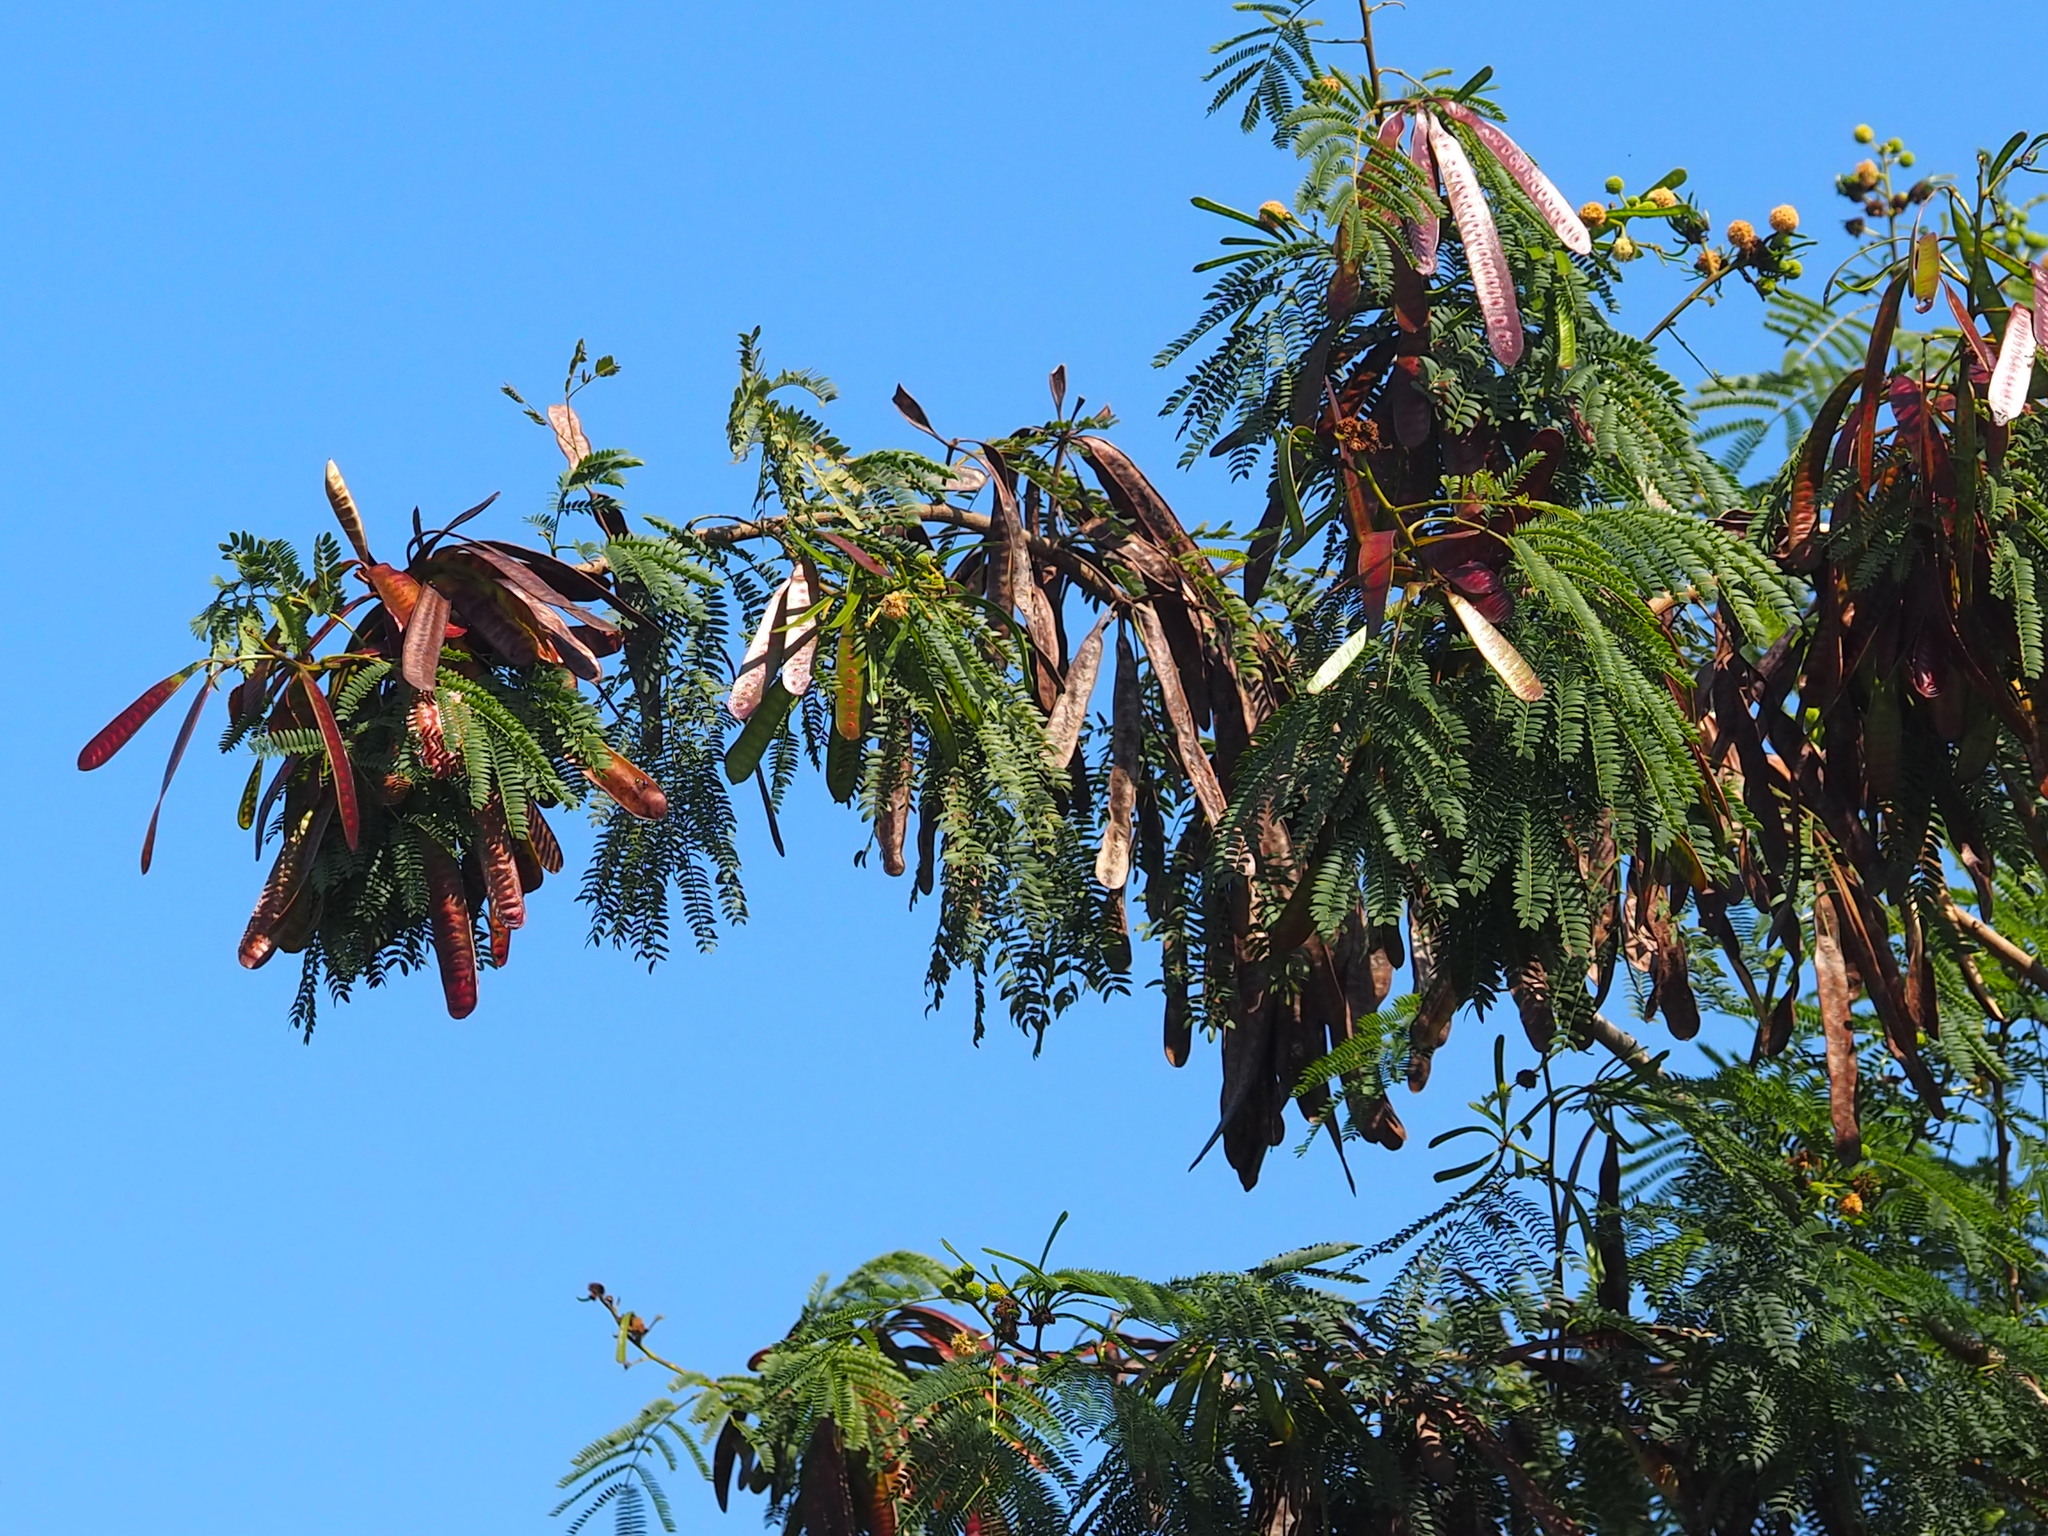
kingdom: Plantae
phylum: Tracheophyta
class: Magnoliopsida
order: Fabales
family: Fabaceae
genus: Leucaena
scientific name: Leucaena leucocephala
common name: White leadtree
